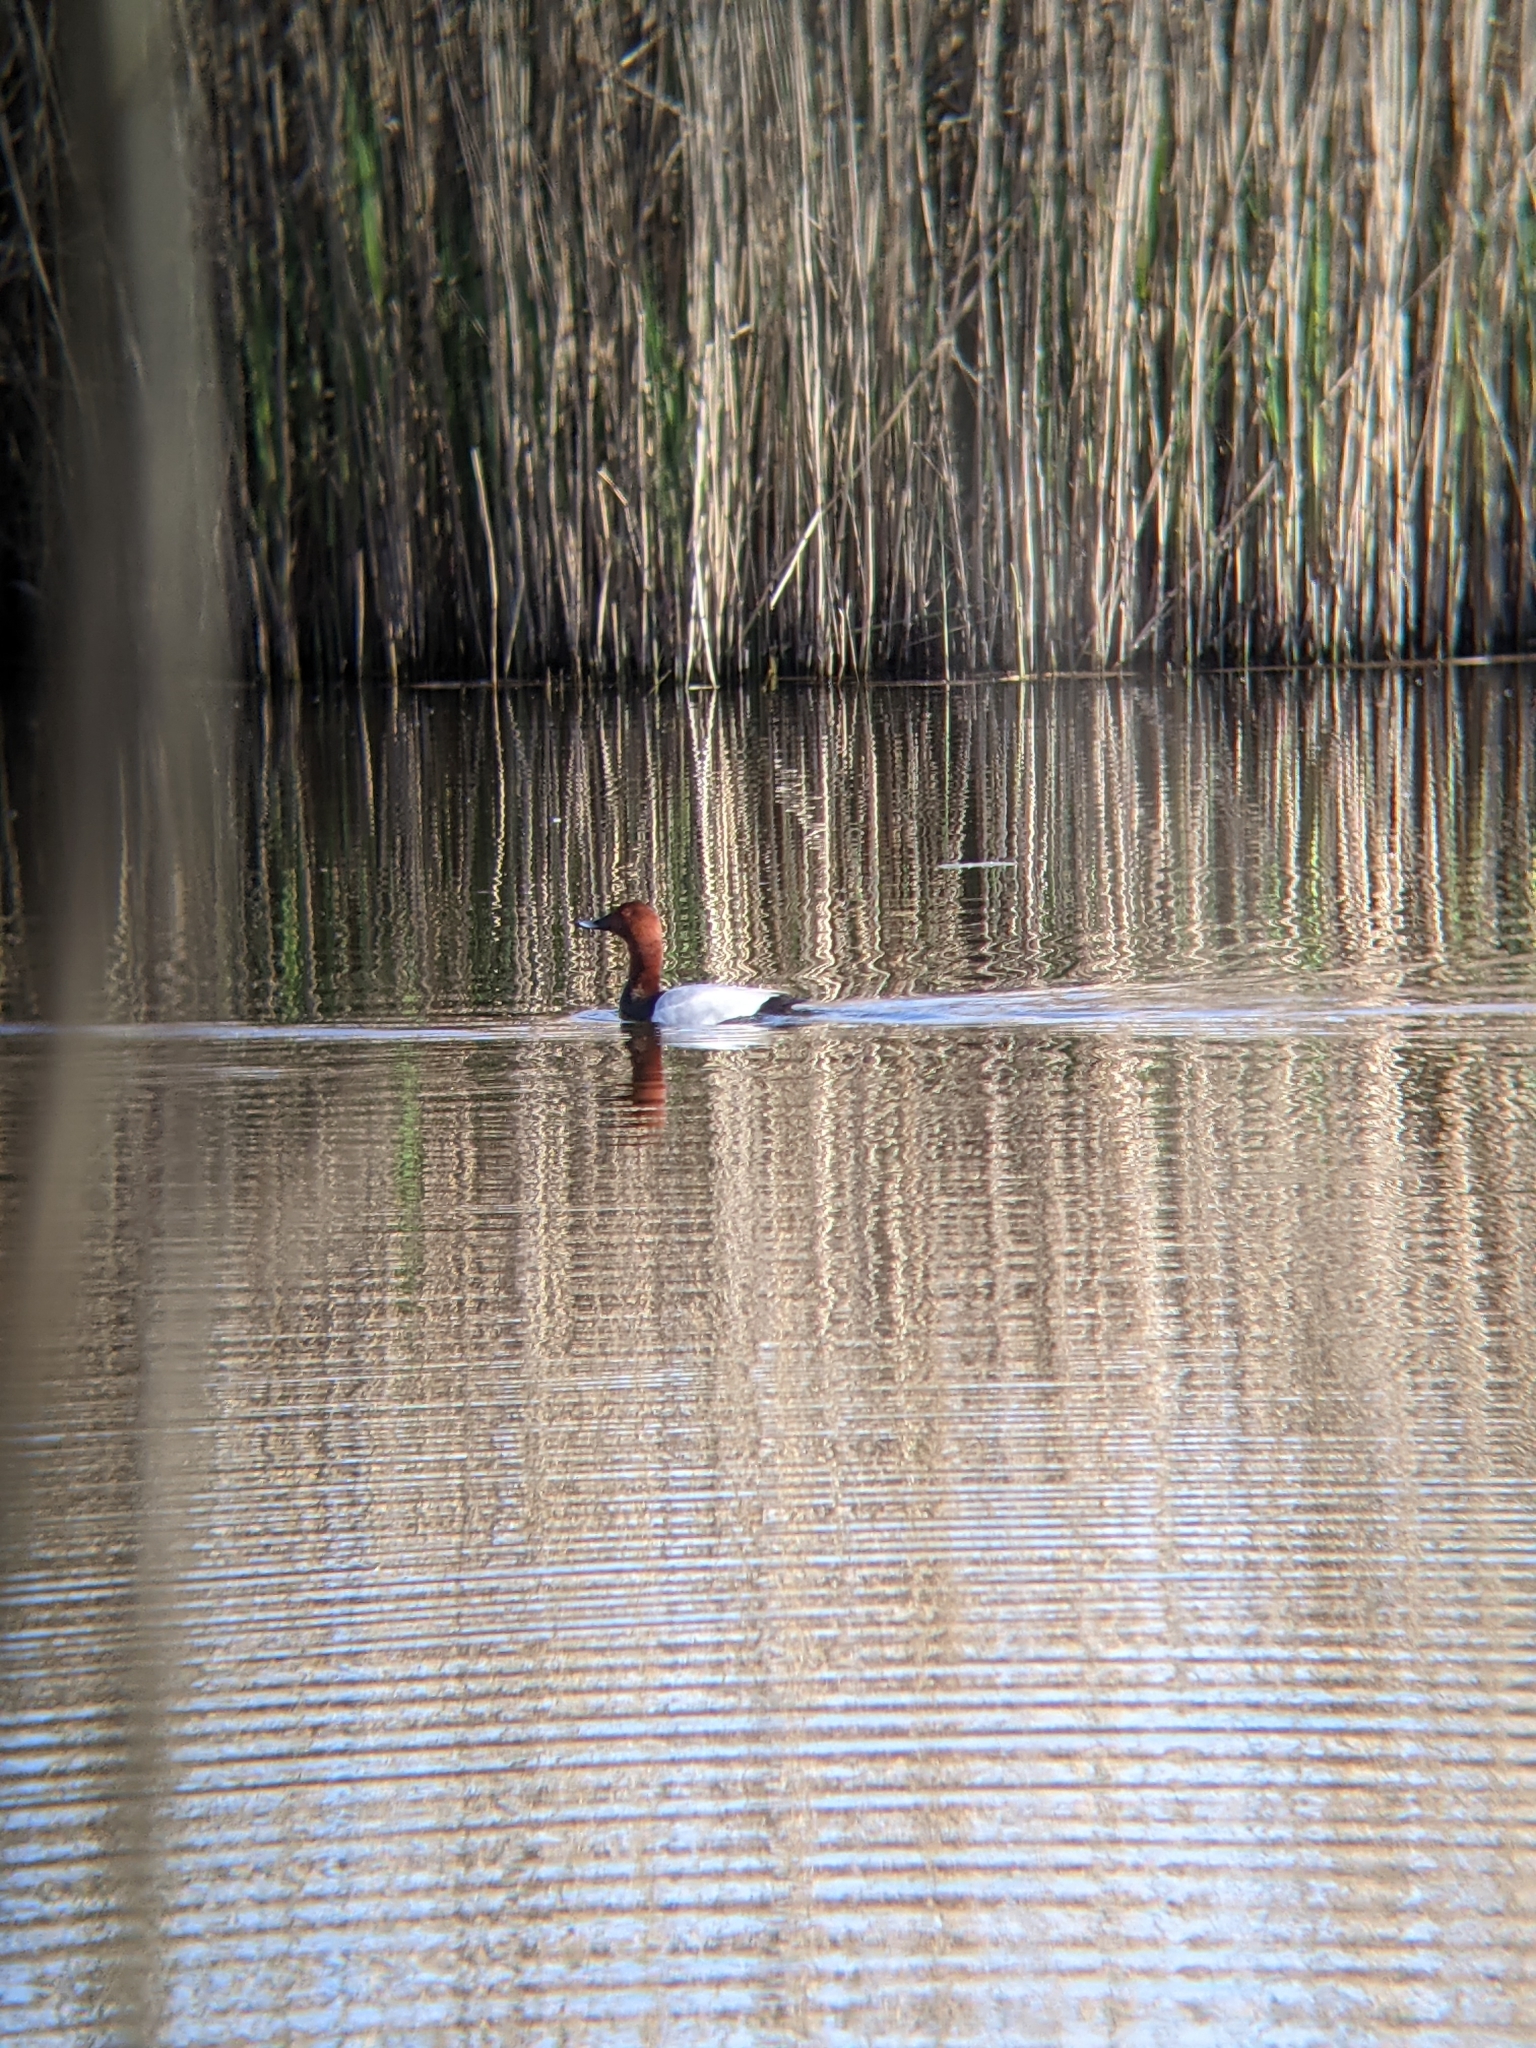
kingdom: Animalia
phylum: Chordata
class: Aves
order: Anseriformes
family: Anatidae
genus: Aythya
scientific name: Aythya ferina
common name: Common pochard
